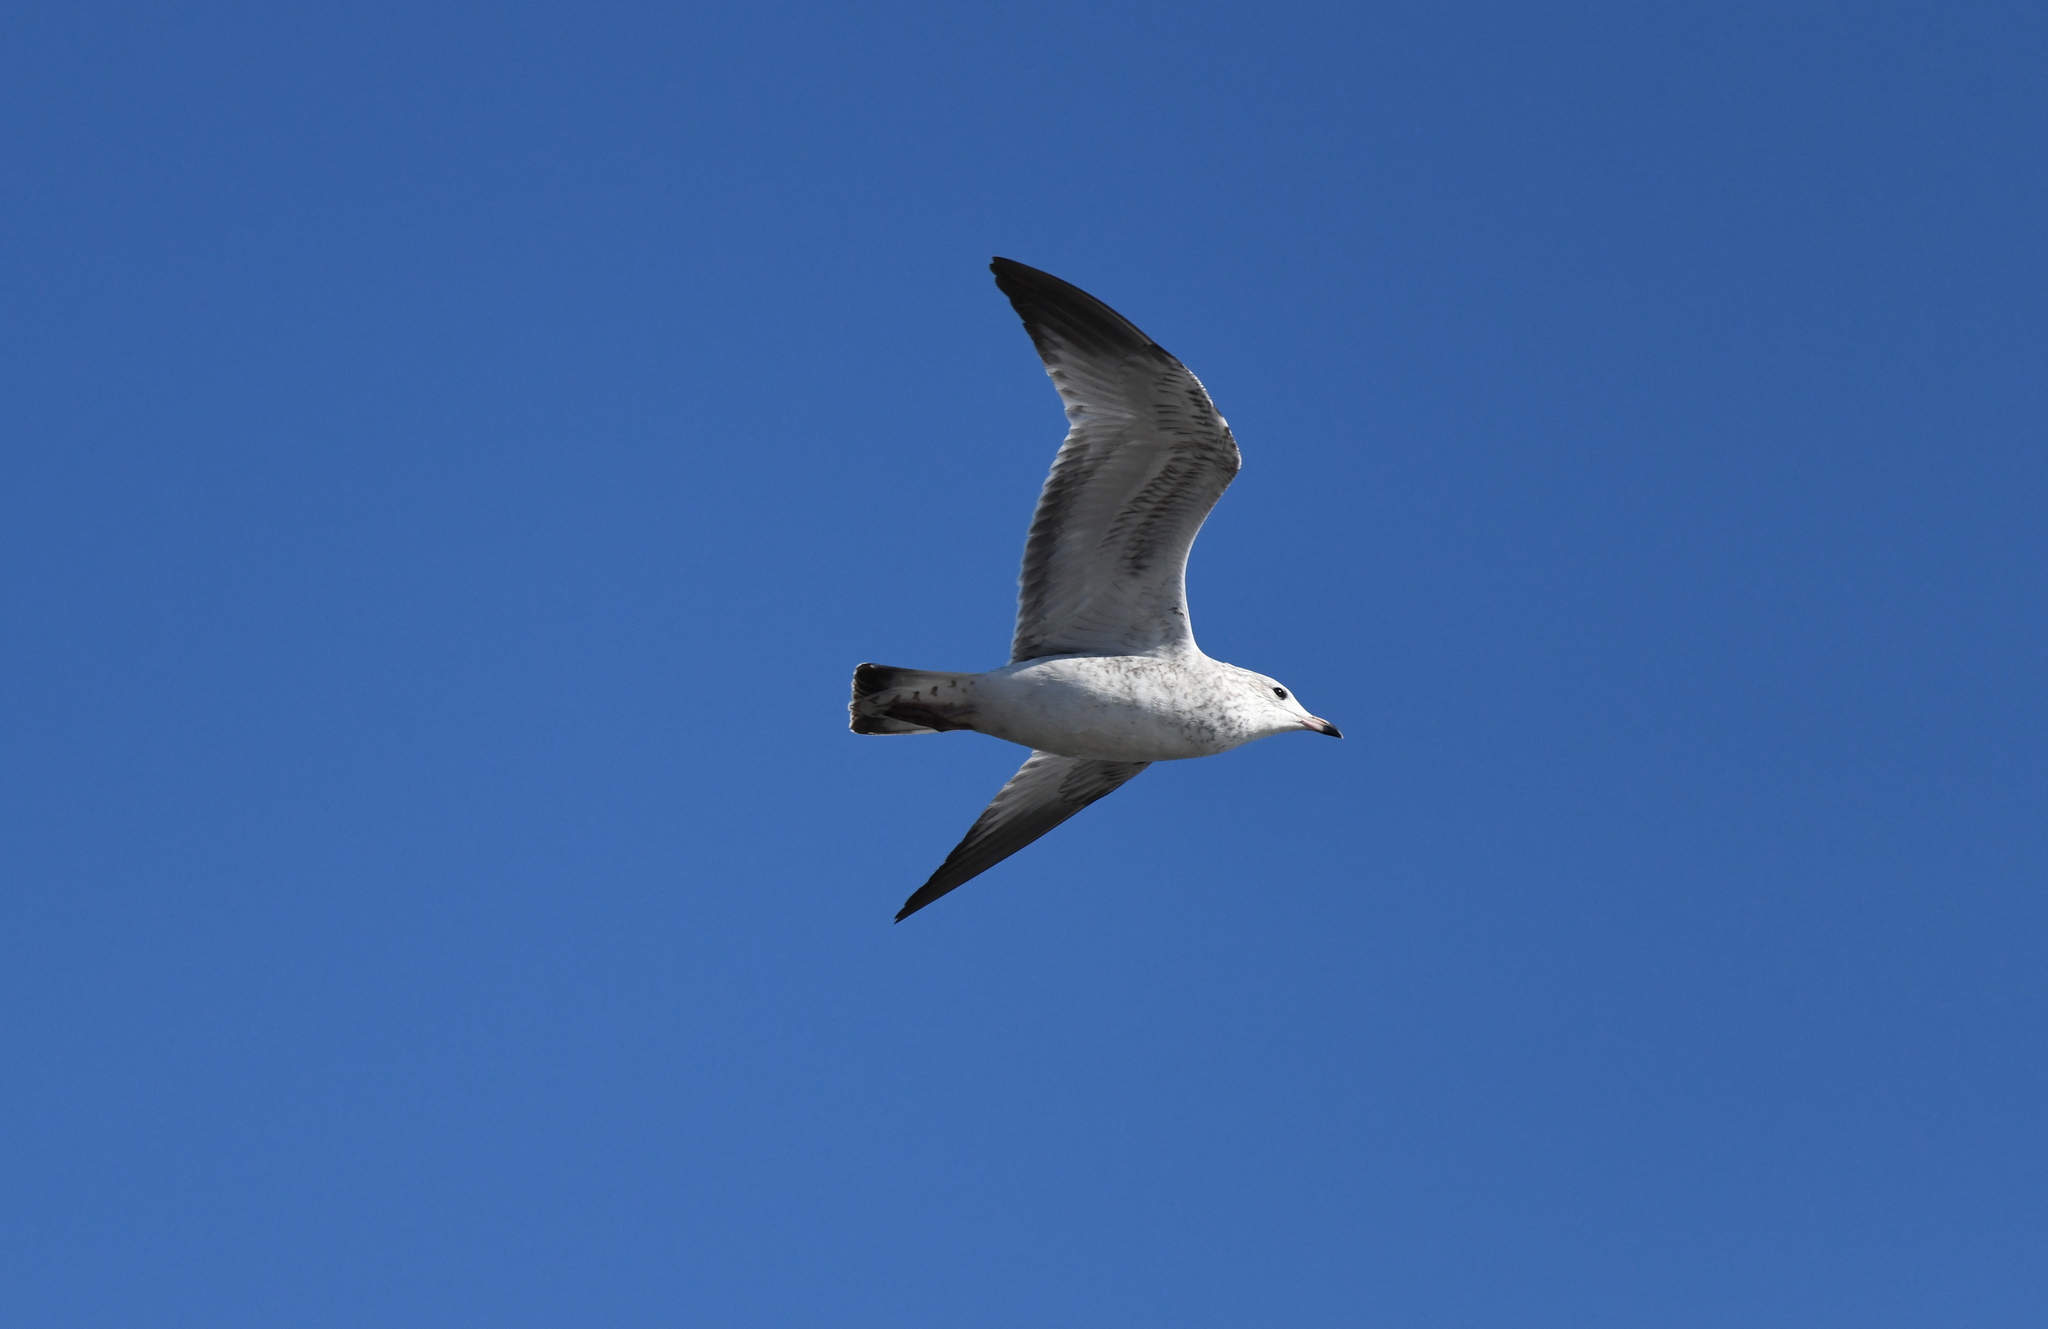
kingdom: Animalia
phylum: Chordata
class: Aves
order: Charadriiformes
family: Laridae
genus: Larus
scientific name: Larus delawarensis
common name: Ring-billed gull
